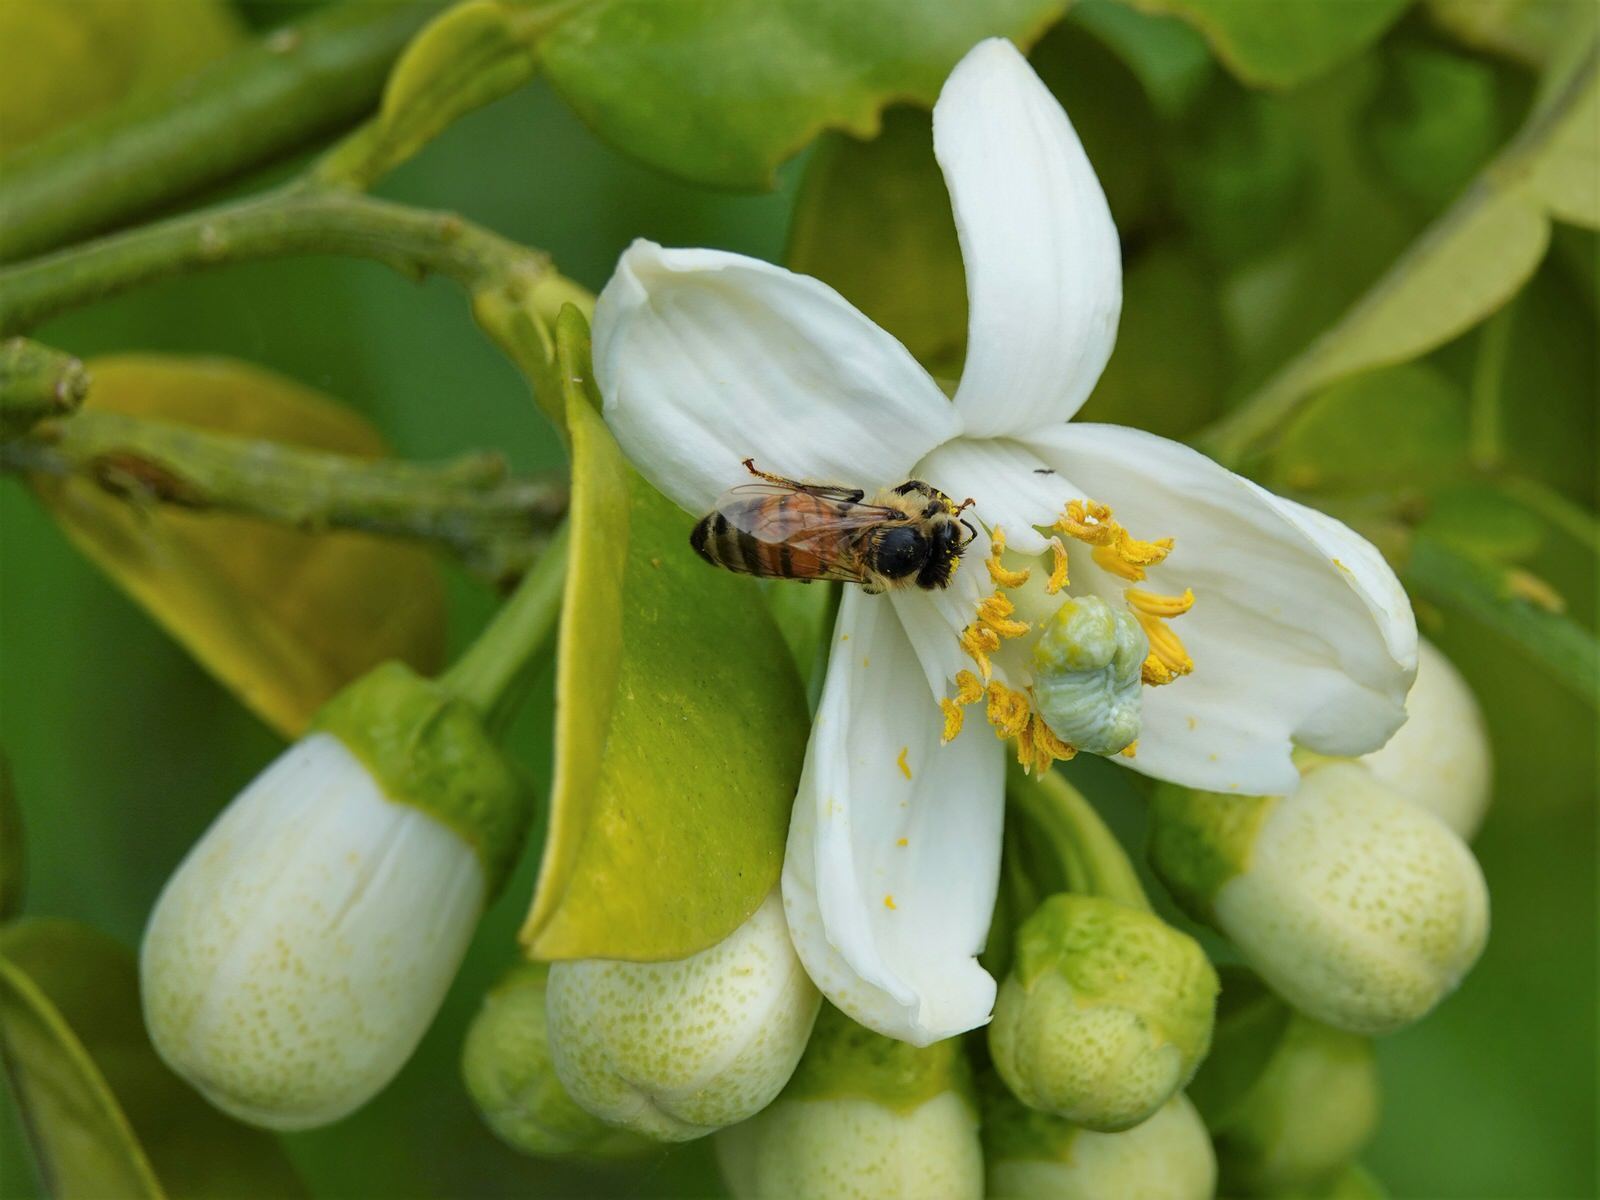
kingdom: Animalia
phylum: Arthropoda
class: Insecta
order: Hymenoptera
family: Apidae
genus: Apis
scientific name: Apis mellifera
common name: Honey bee
